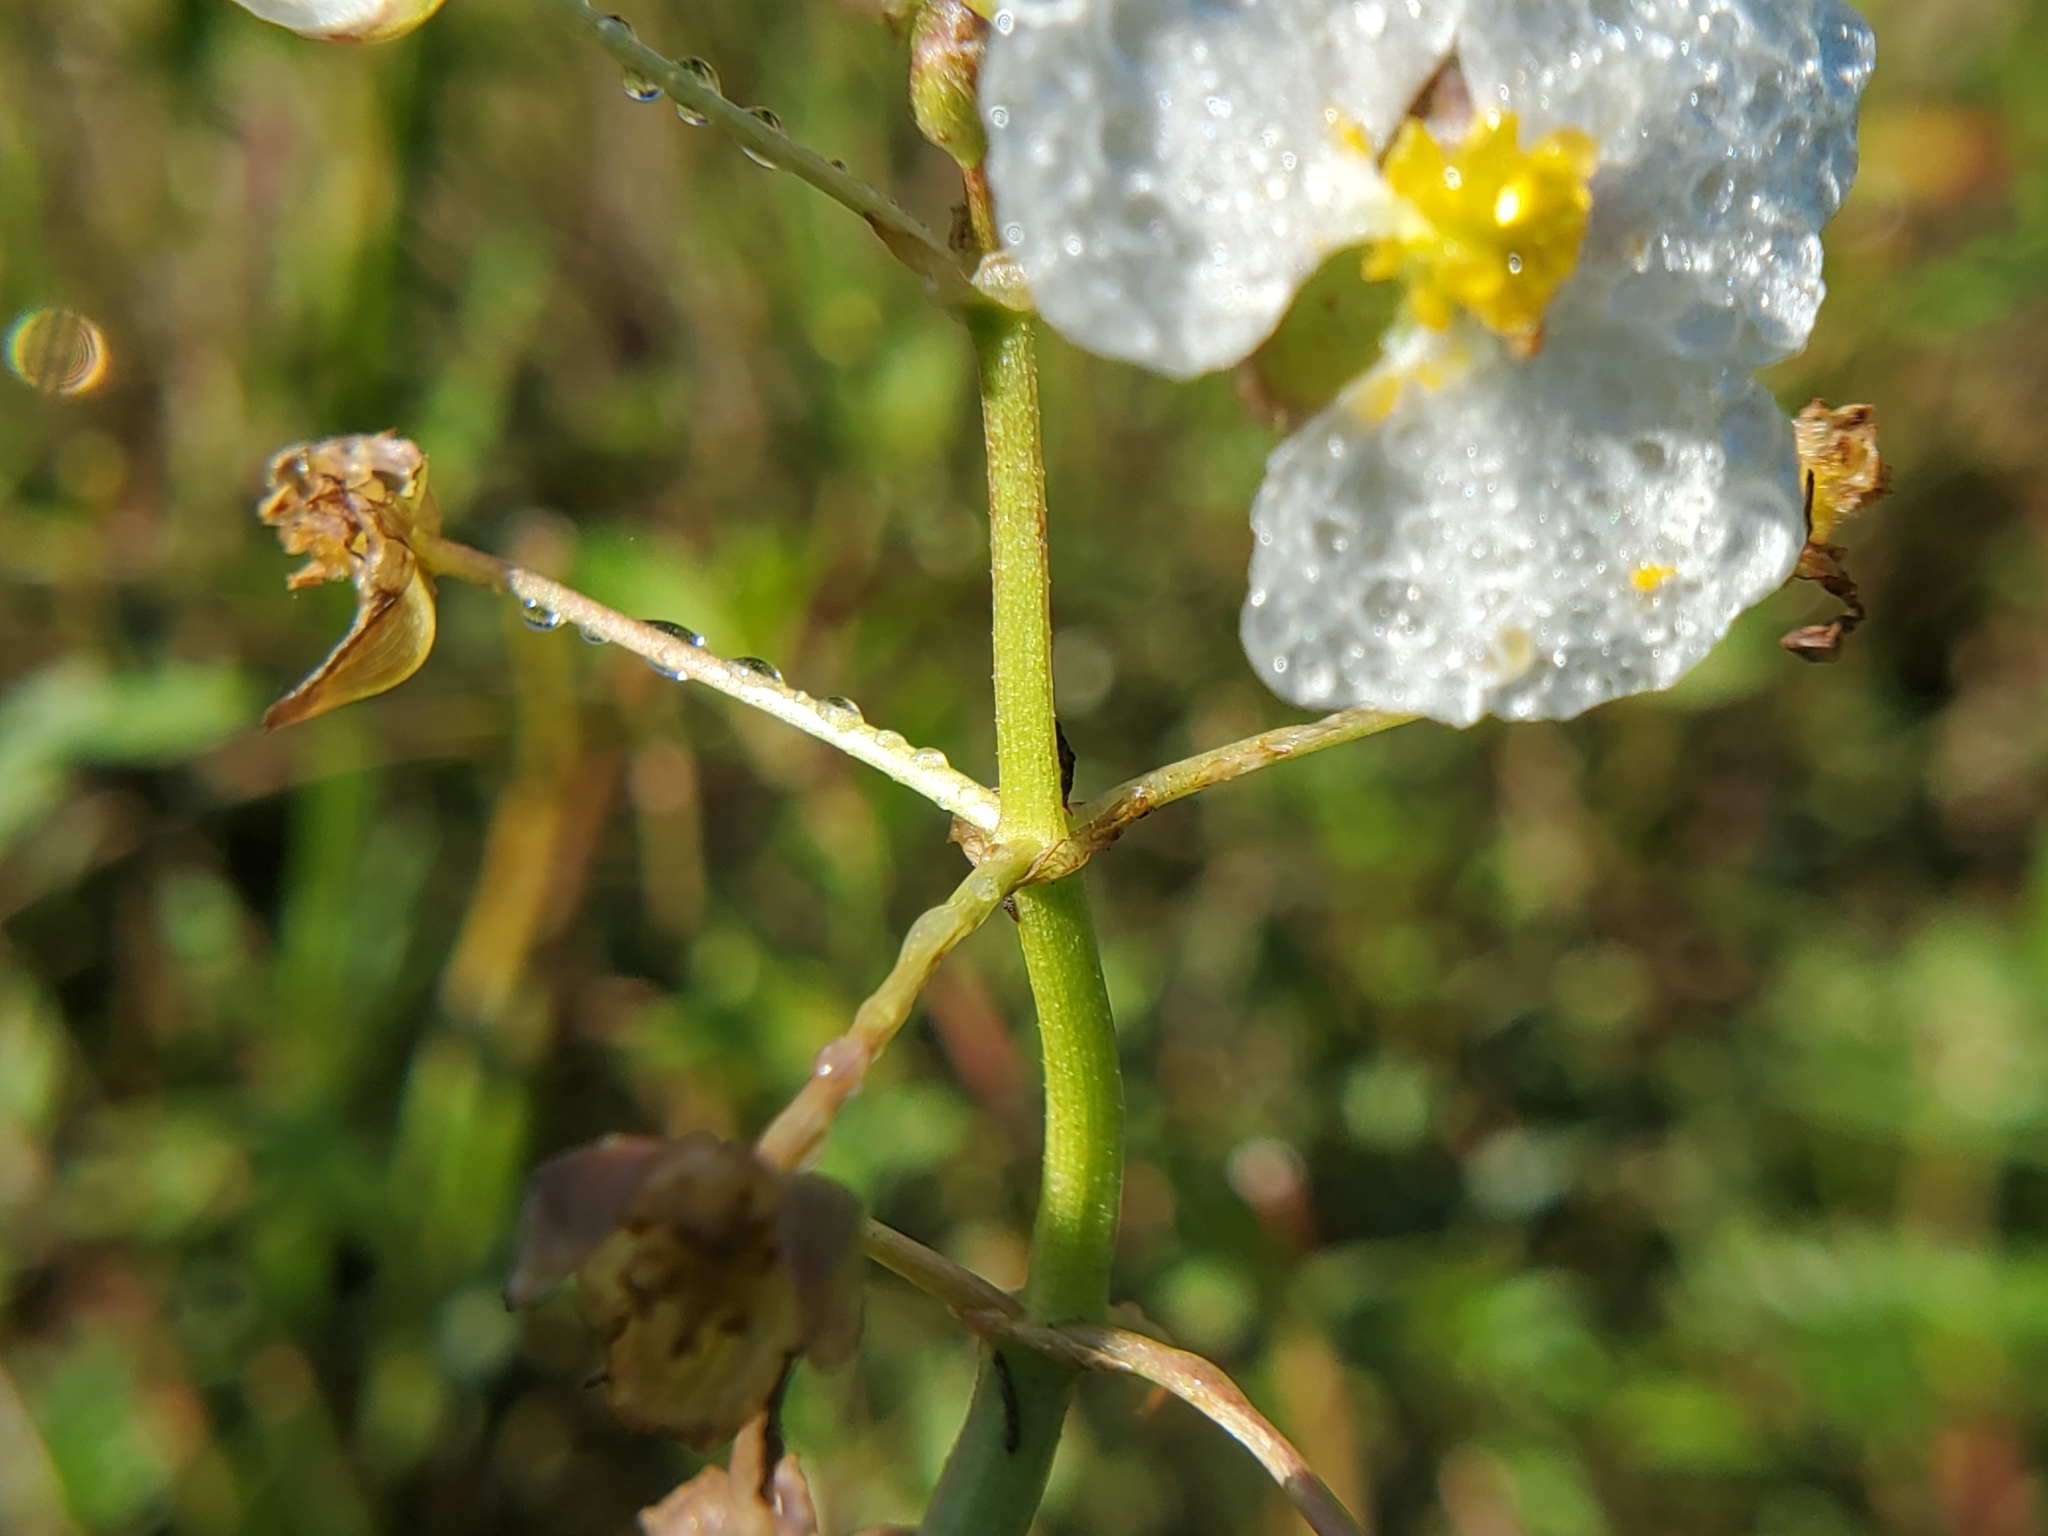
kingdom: Plantae
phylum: Tracheophyta
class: Liliopsida
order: Alismatales
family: Alismataceae
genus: Sagittaria
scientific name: Sagittaria platyphylla
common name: Broad-leaf arrowhead
